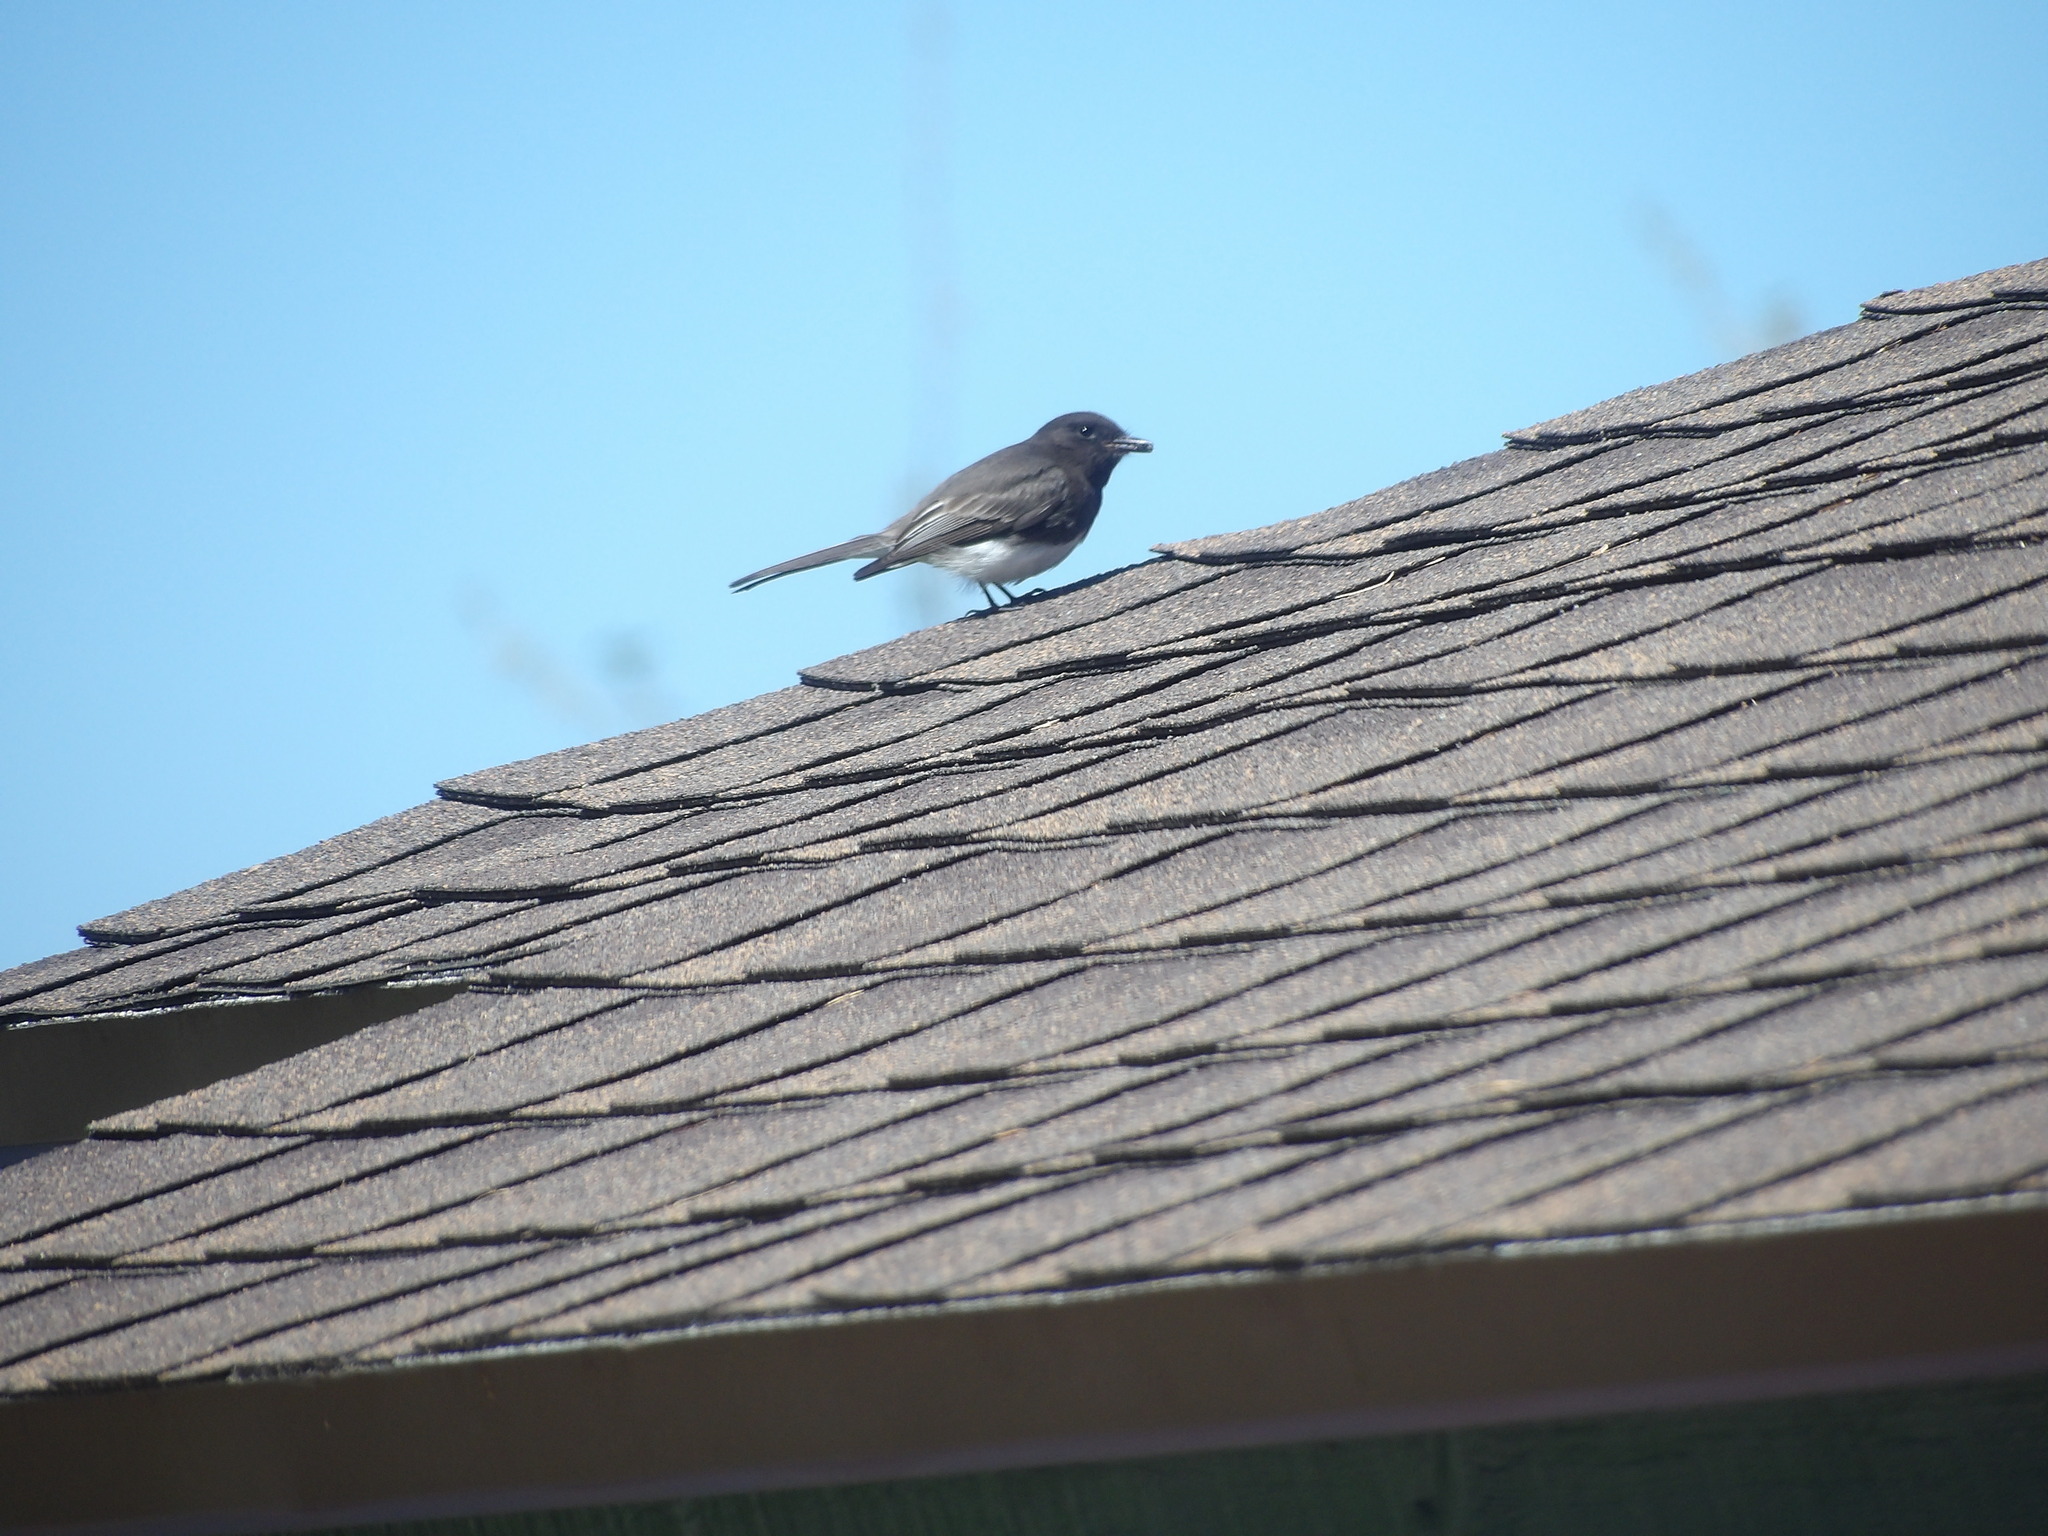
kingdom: Animalia
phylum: Chordata
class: Aves
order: Passeriformes
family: Tyrannidae
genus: Sayornis
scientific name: Sayornis nigricans
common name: Black phoebe
